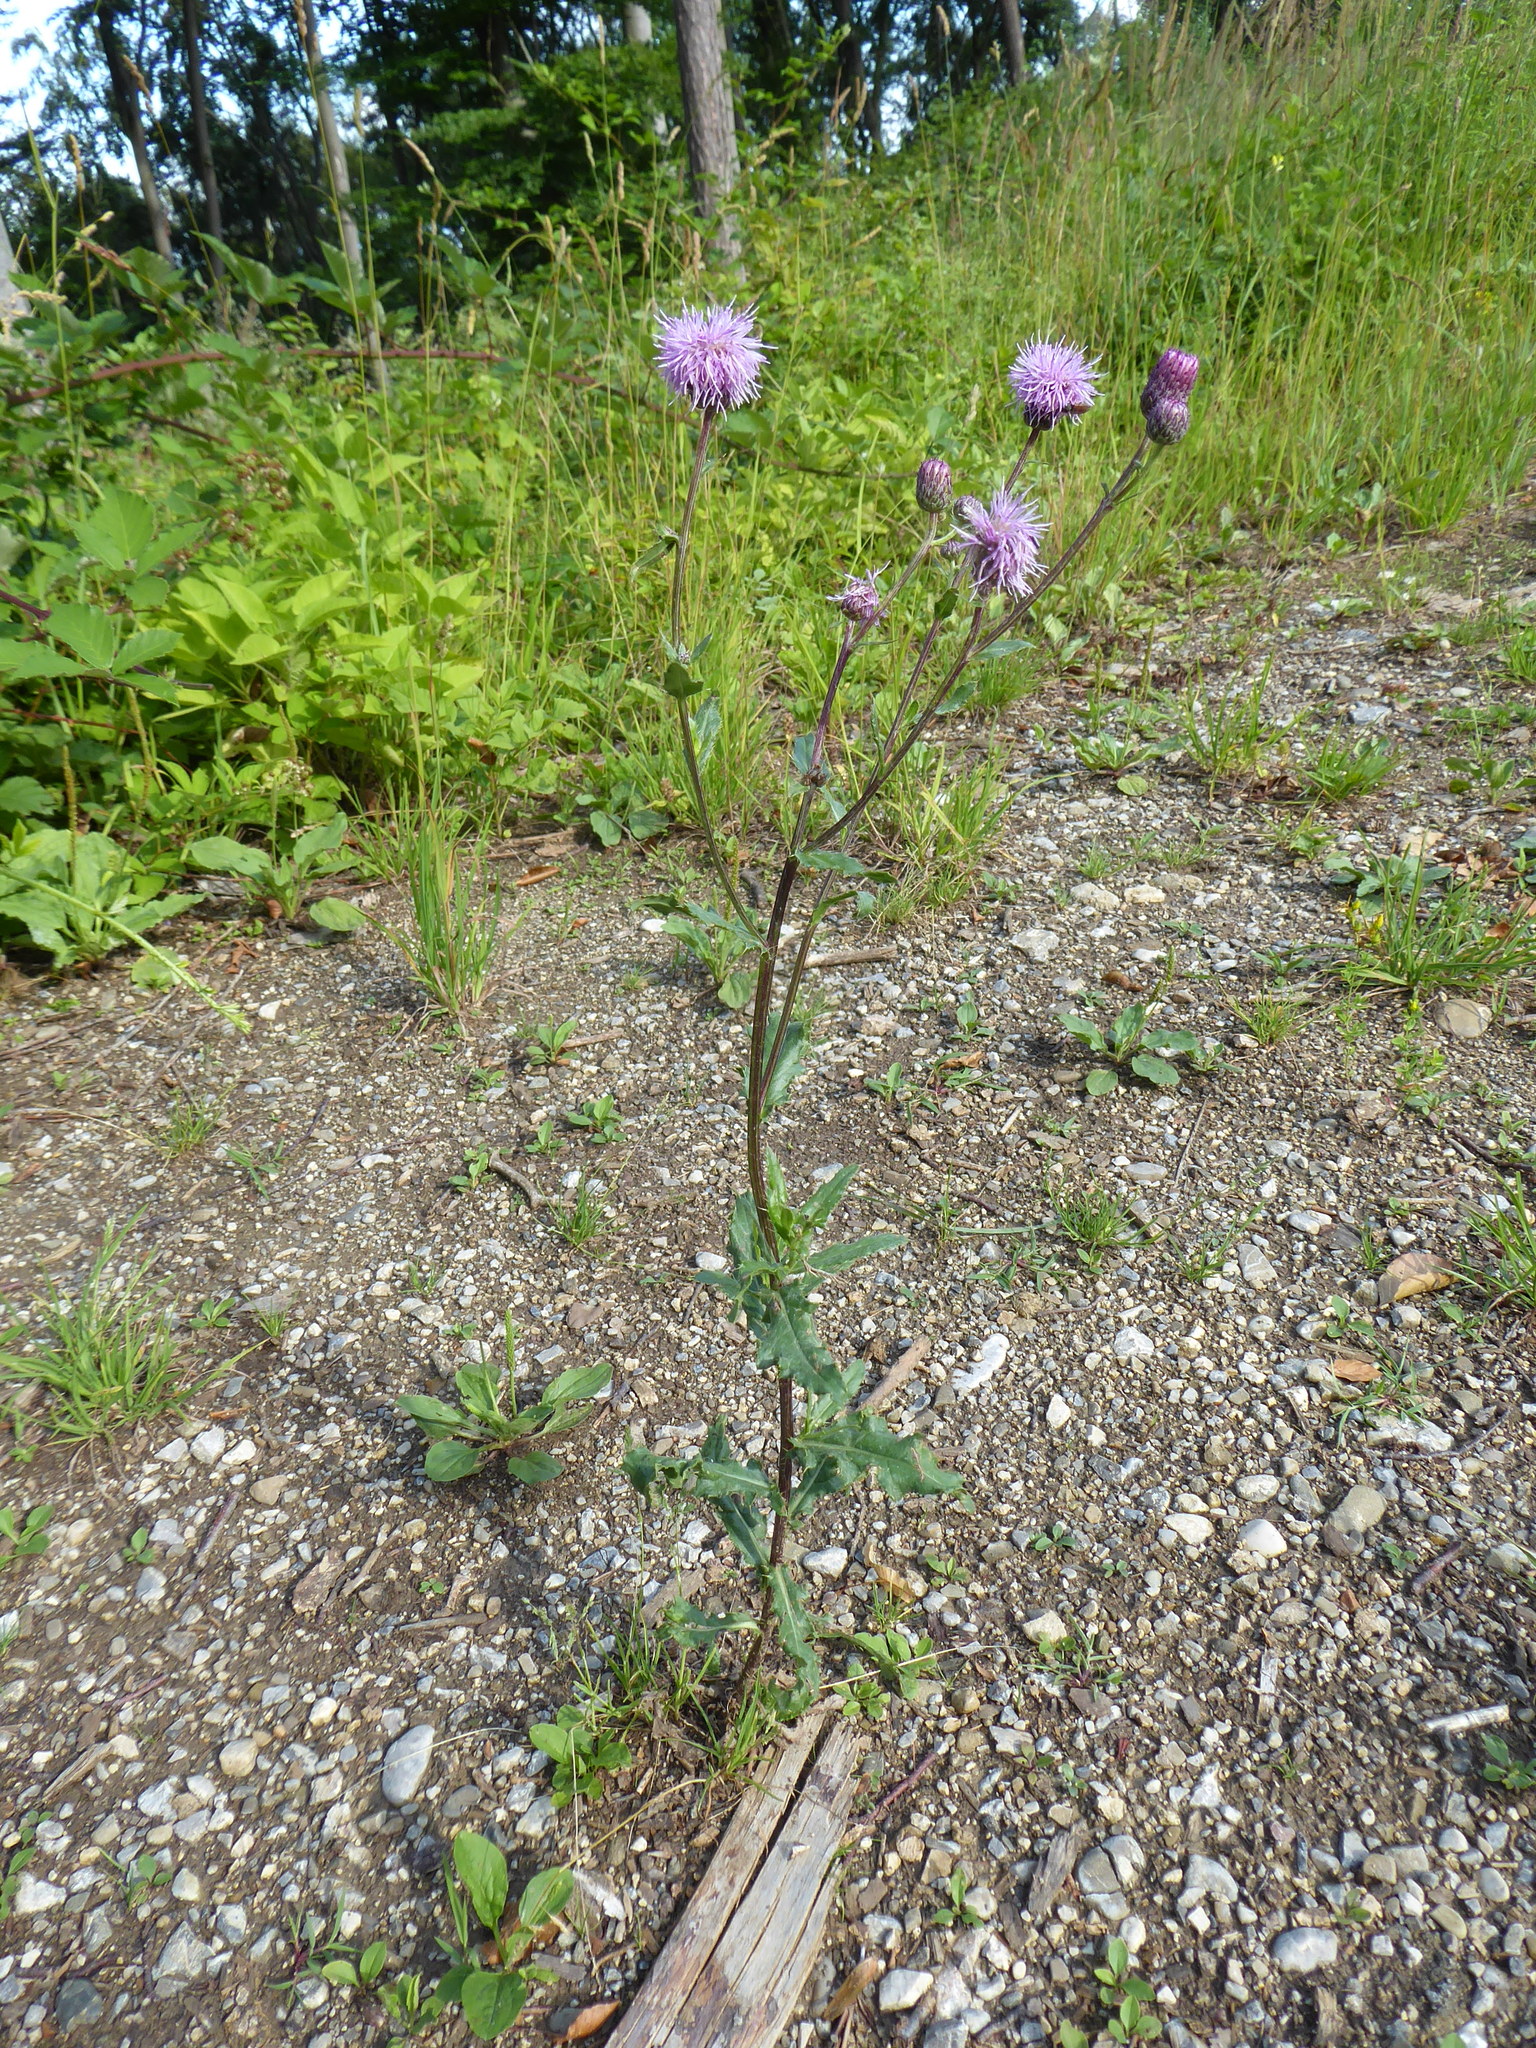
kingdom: Plantae
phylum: Tracheophyta
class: Magnoliopsida
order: Asterales
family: Asteraceae
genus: Cirsium
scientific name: Cirsium arvense
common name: Creeping thistle
